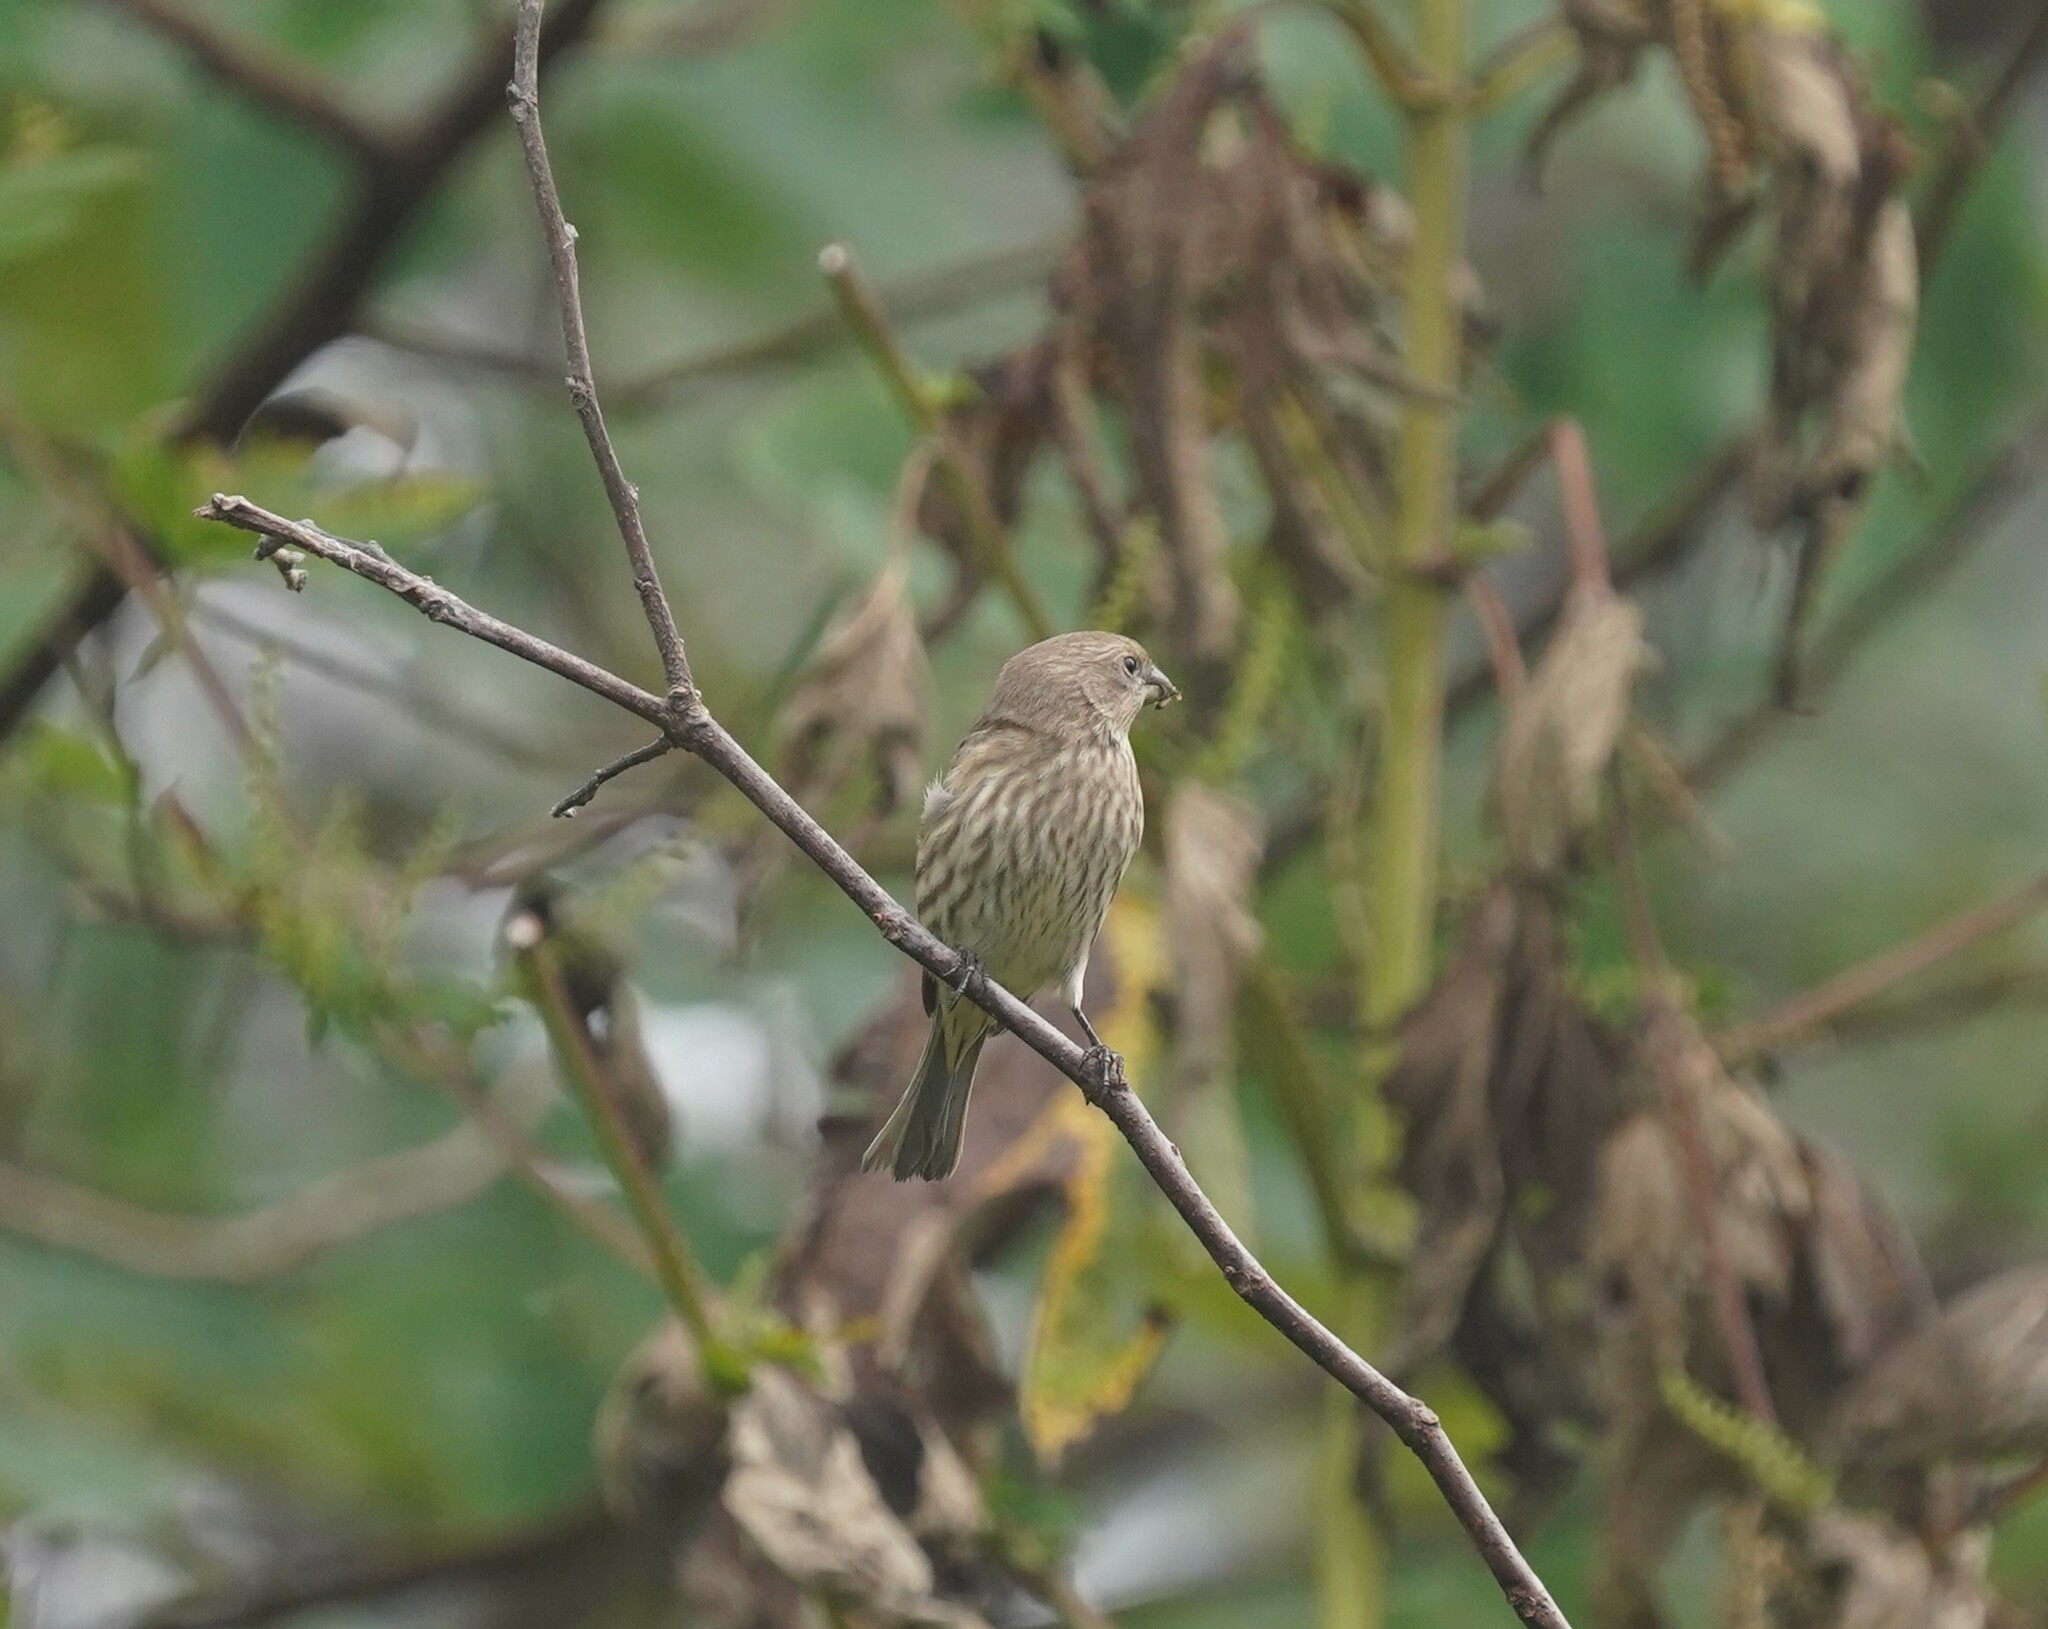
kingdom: Animalia
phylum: Chordata
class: Aves
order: Passeriformes
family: Fringillidae
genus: Haemorhous
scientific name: Haemorhous mexicanus
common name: House finch
